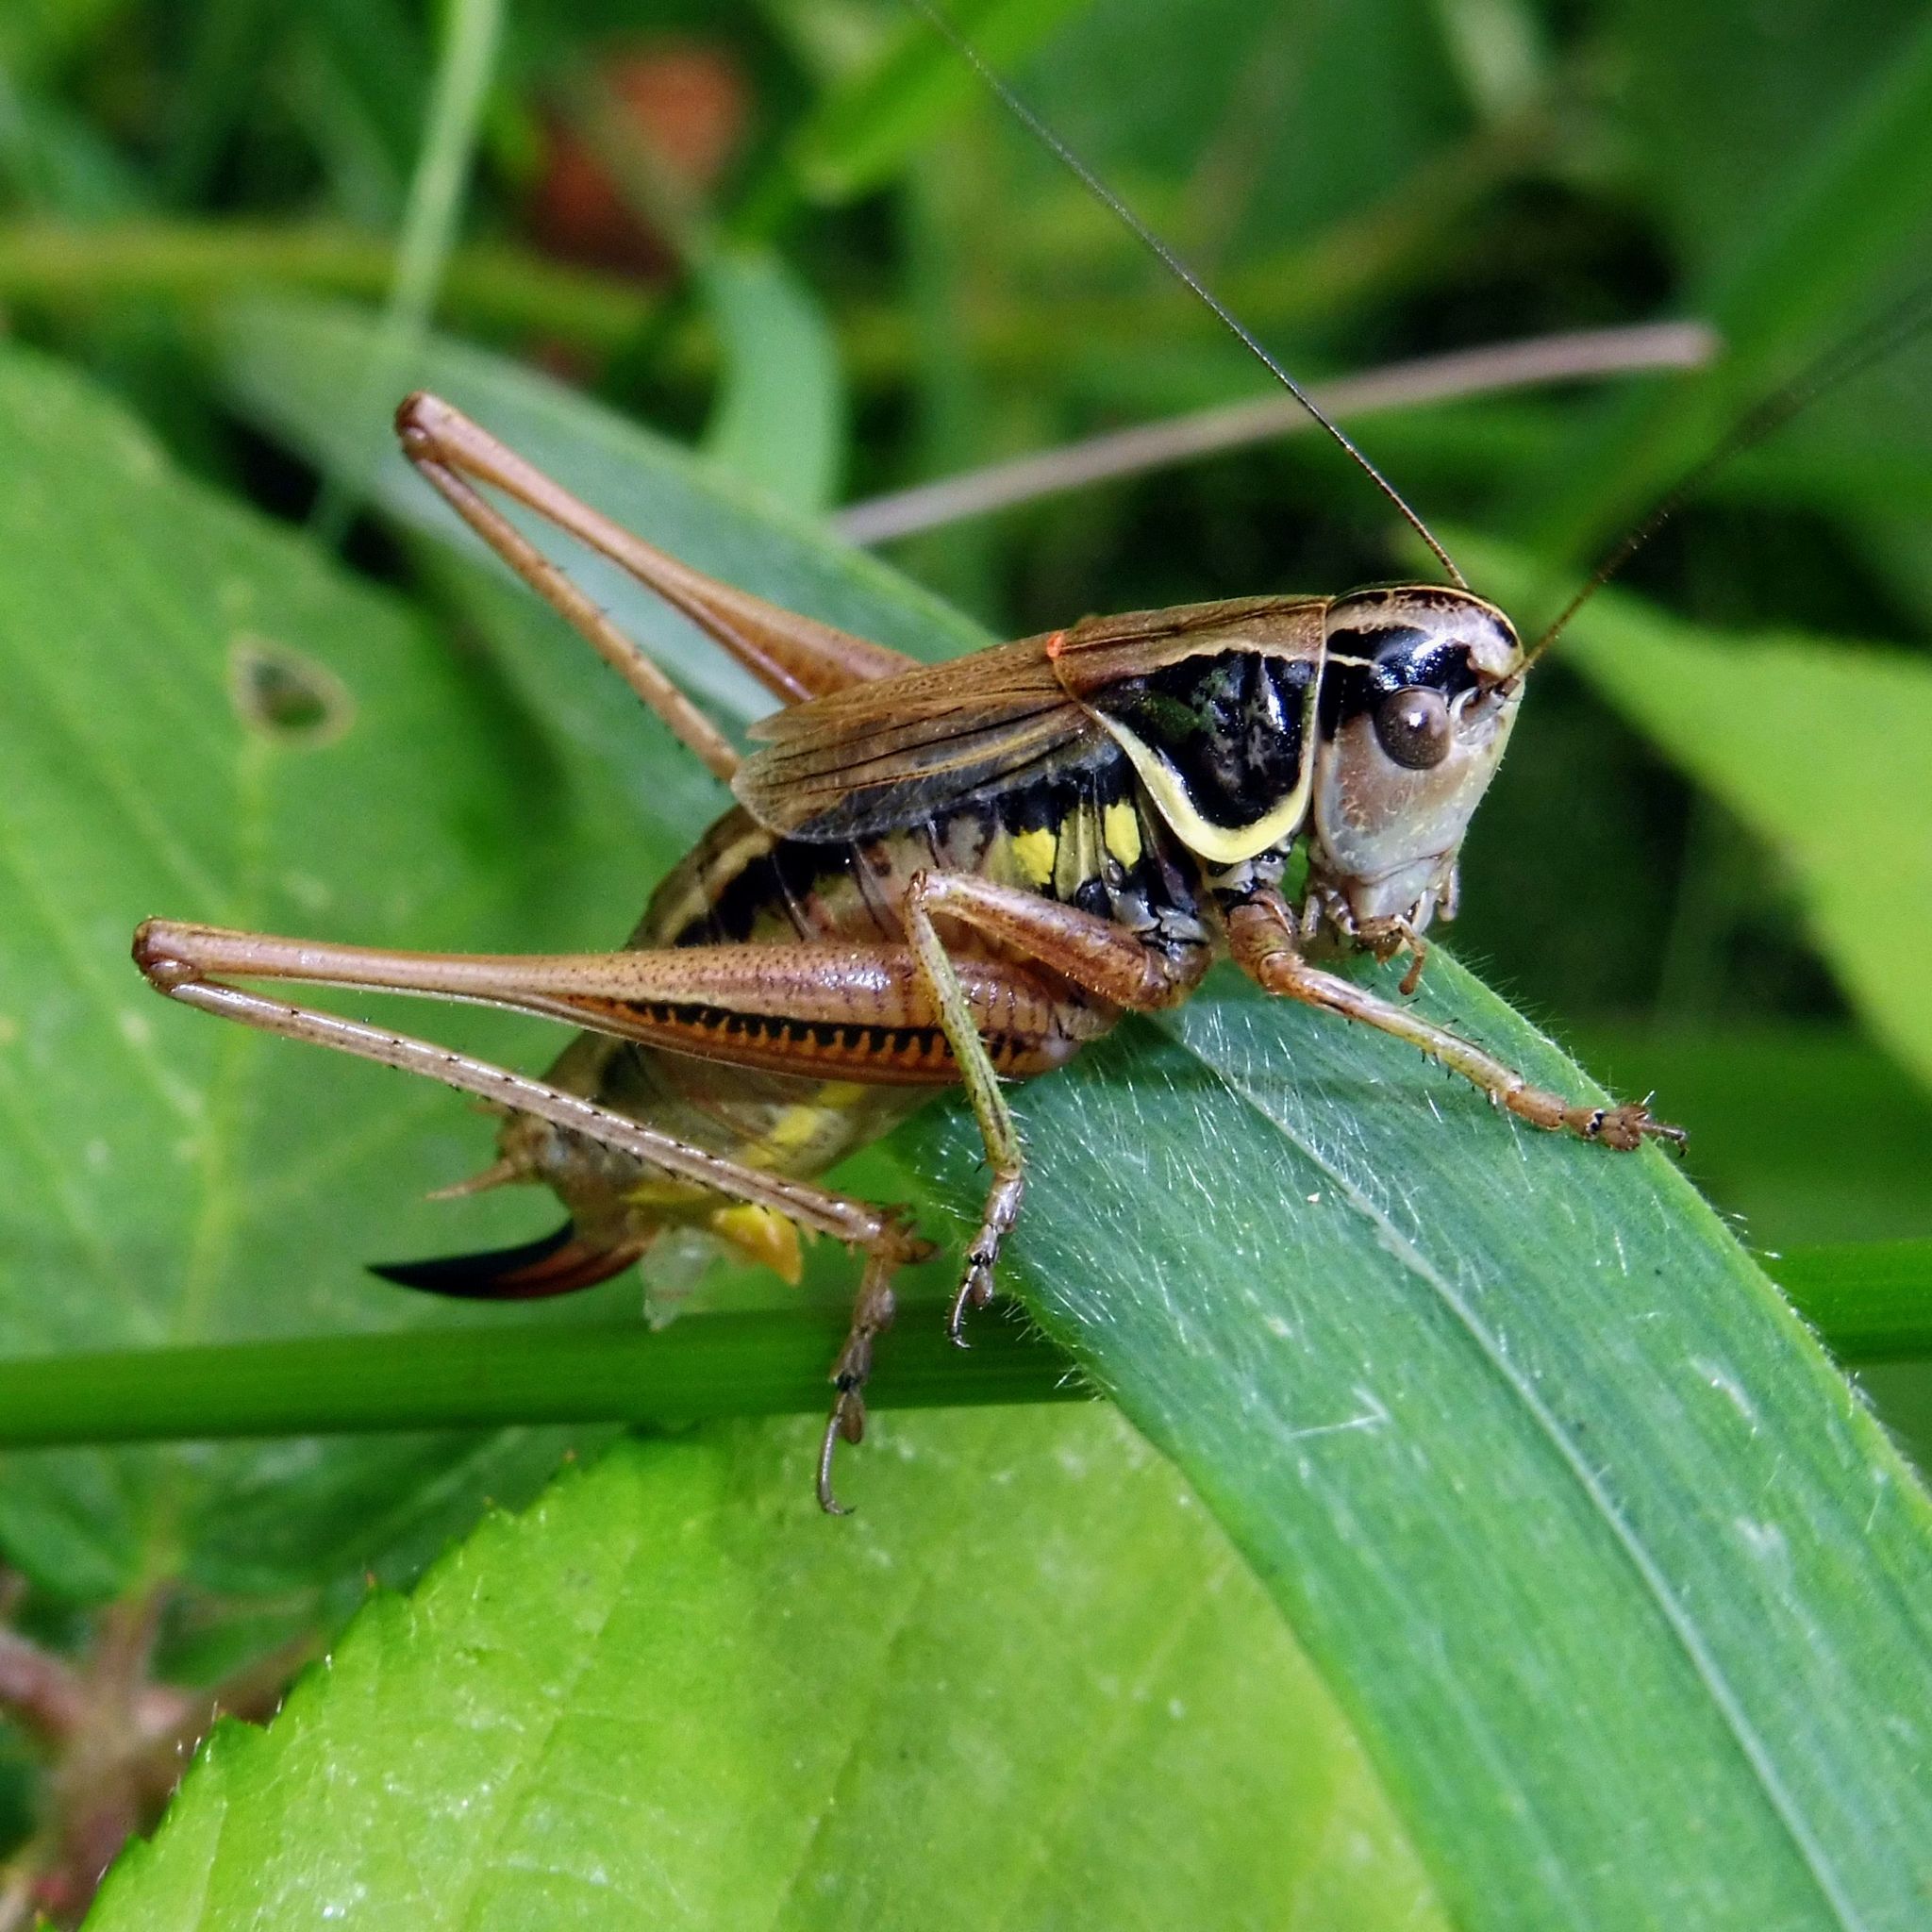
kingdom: Animalia
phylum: Arthropoda
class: Insecta
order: Orthoptera
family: Tettigoniidae
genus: Roeseliana
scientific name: Roeseliana roeselii
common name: Roesel's bush cricket
